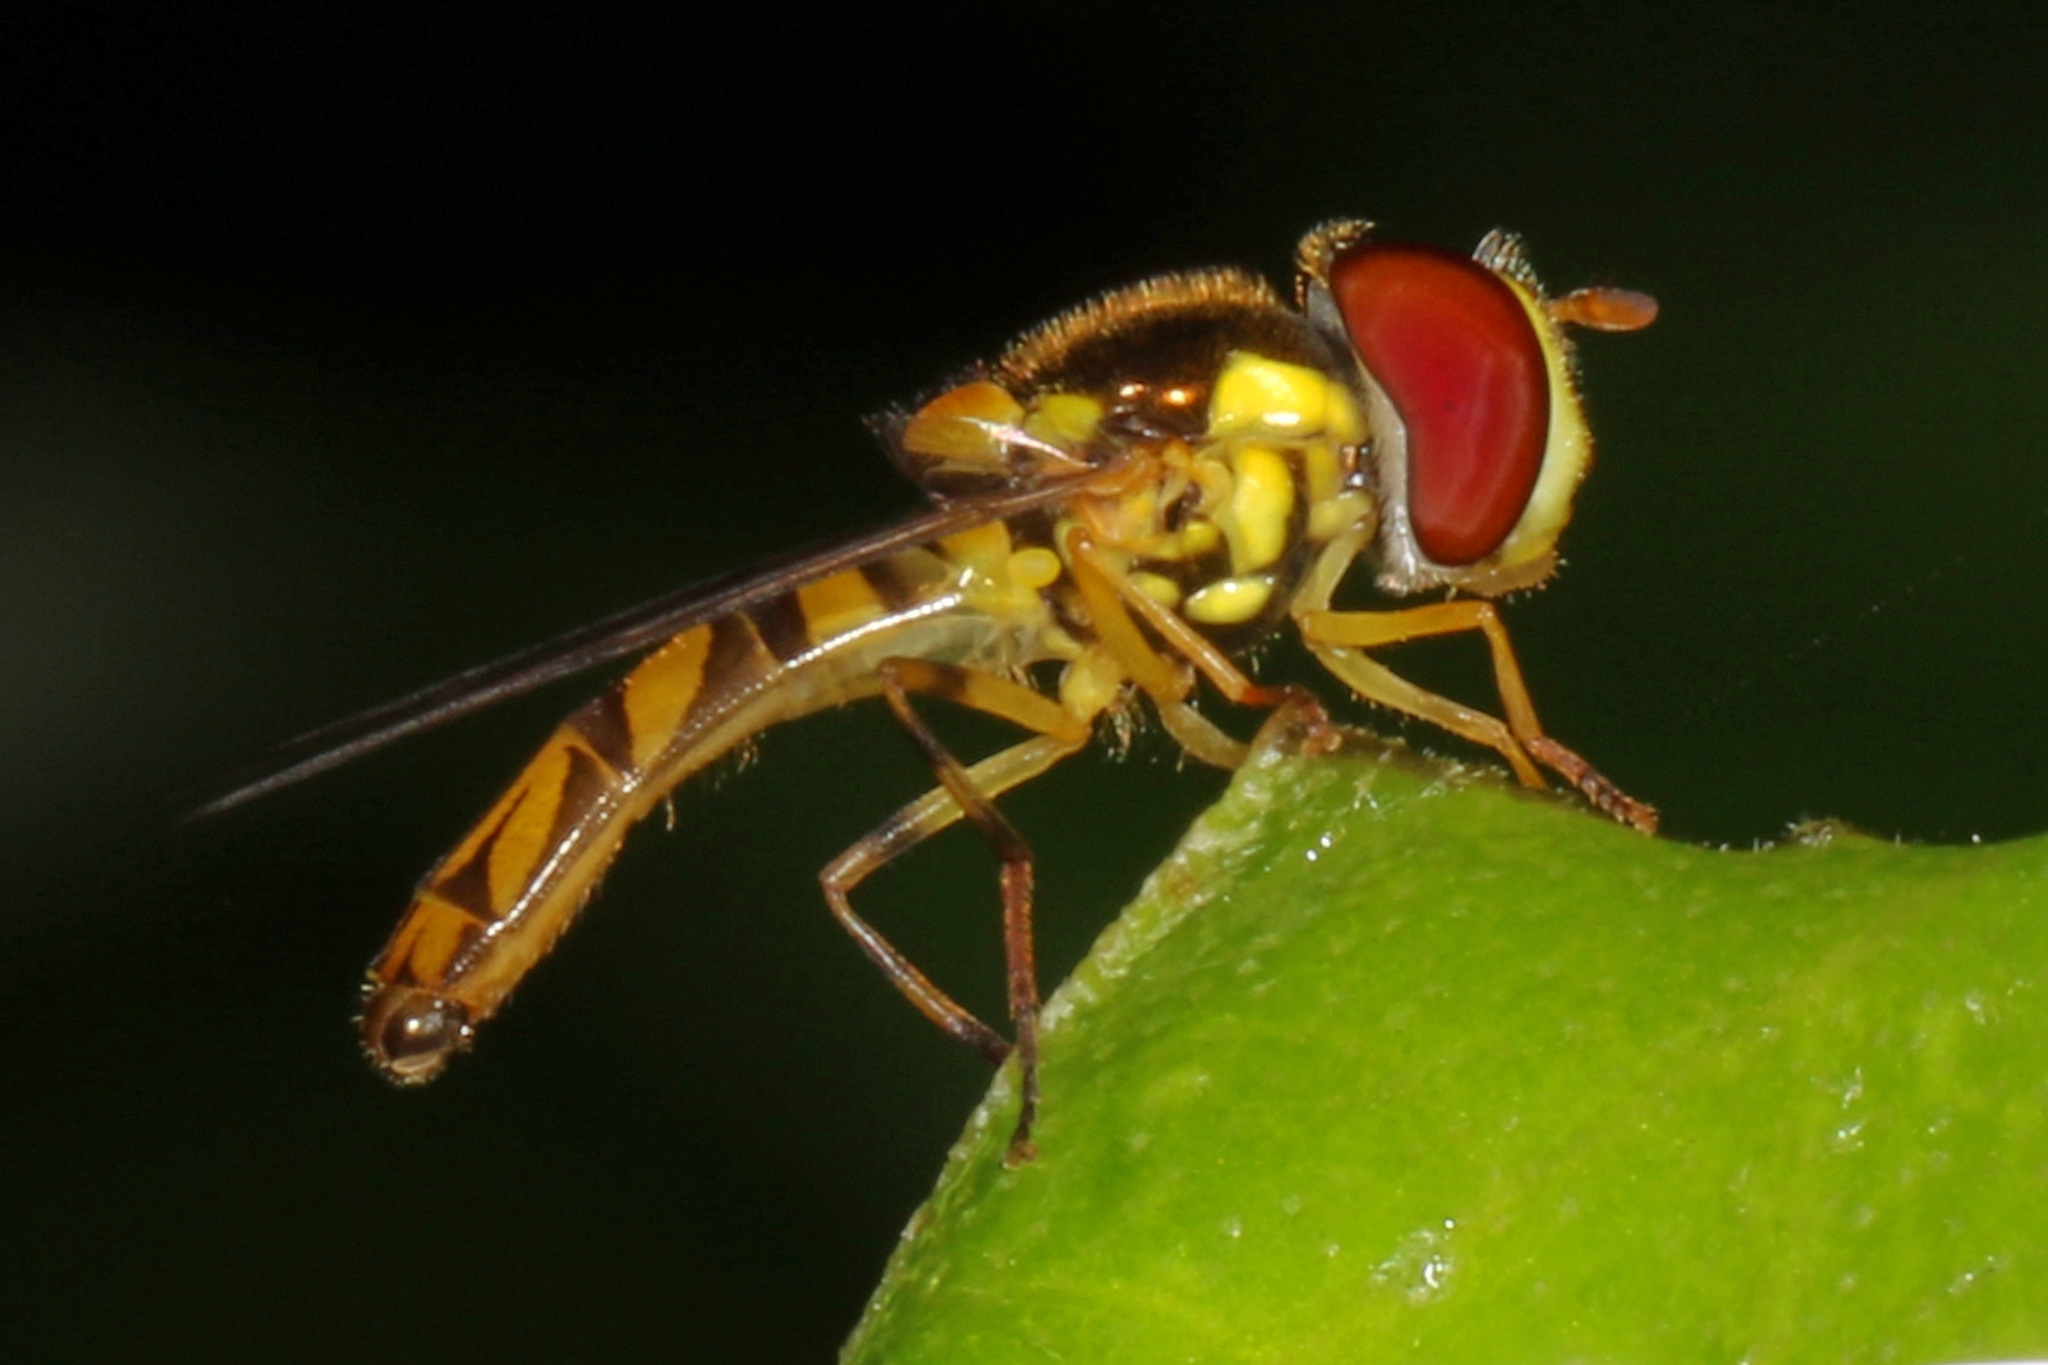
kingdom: Animalia
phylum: Arthropoda
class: Insecta
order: Diptera
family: Syrphidae
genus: Allograpta
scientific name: Allograpta obliqua
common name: Common oblique syrphid
